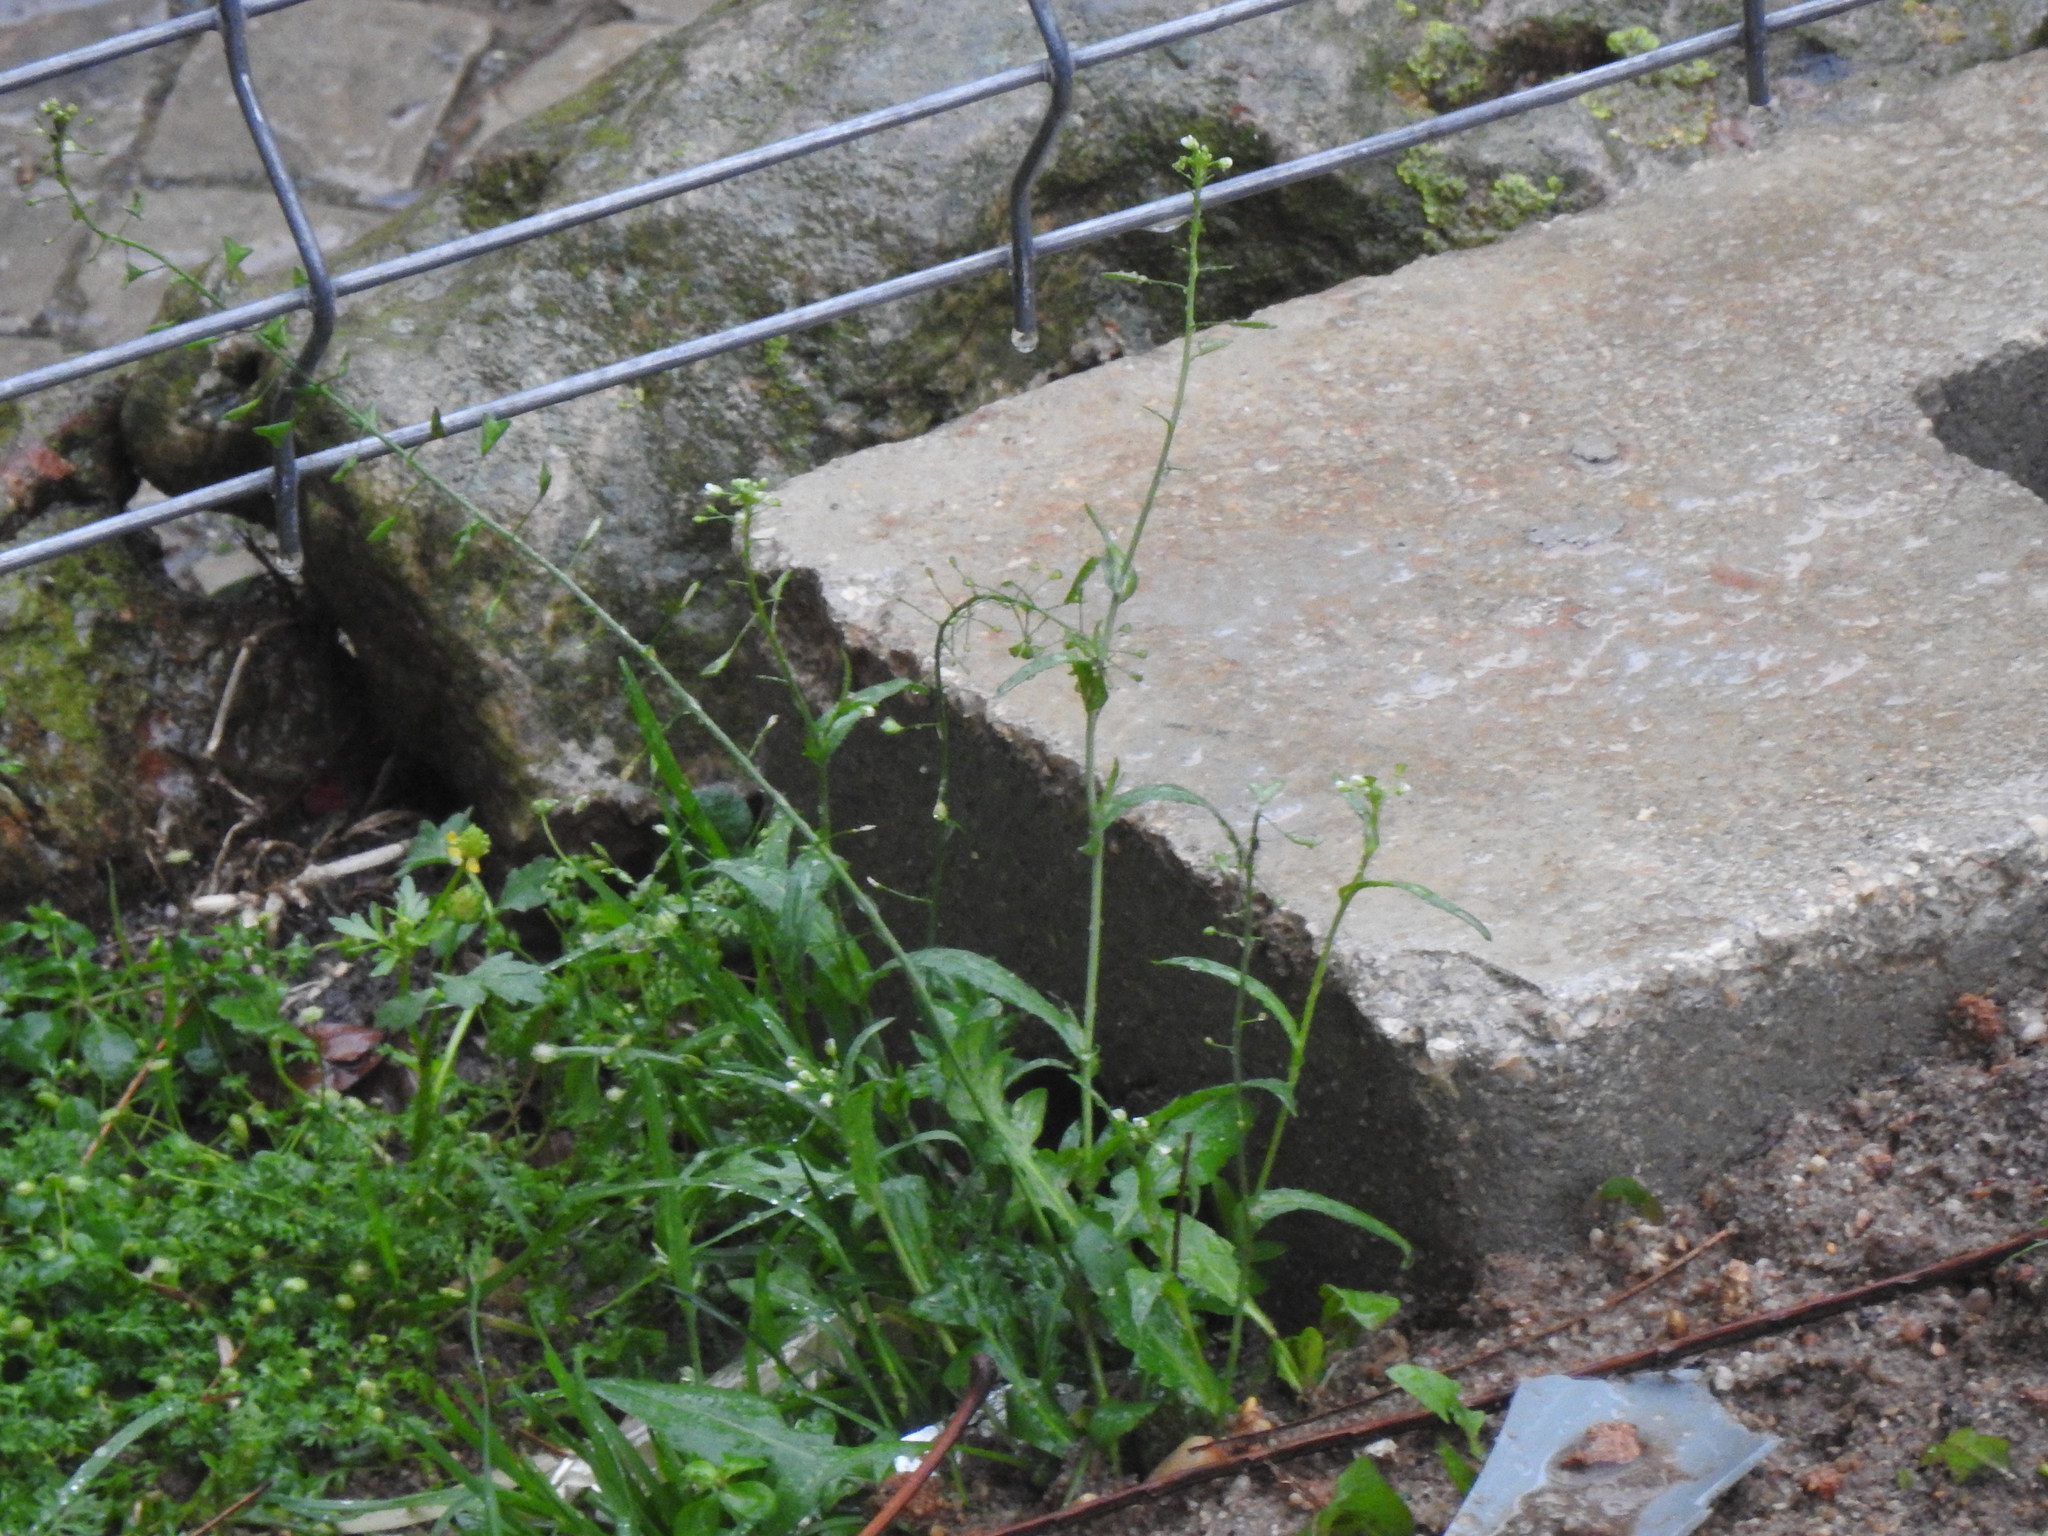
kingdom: Plantae
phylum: Tracheophyta
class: Magnoliopsida
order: Brassicales
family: Brassicaceae
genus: Capsella
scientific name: Capsella bursa-pastoris
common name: Shepherd's purse
